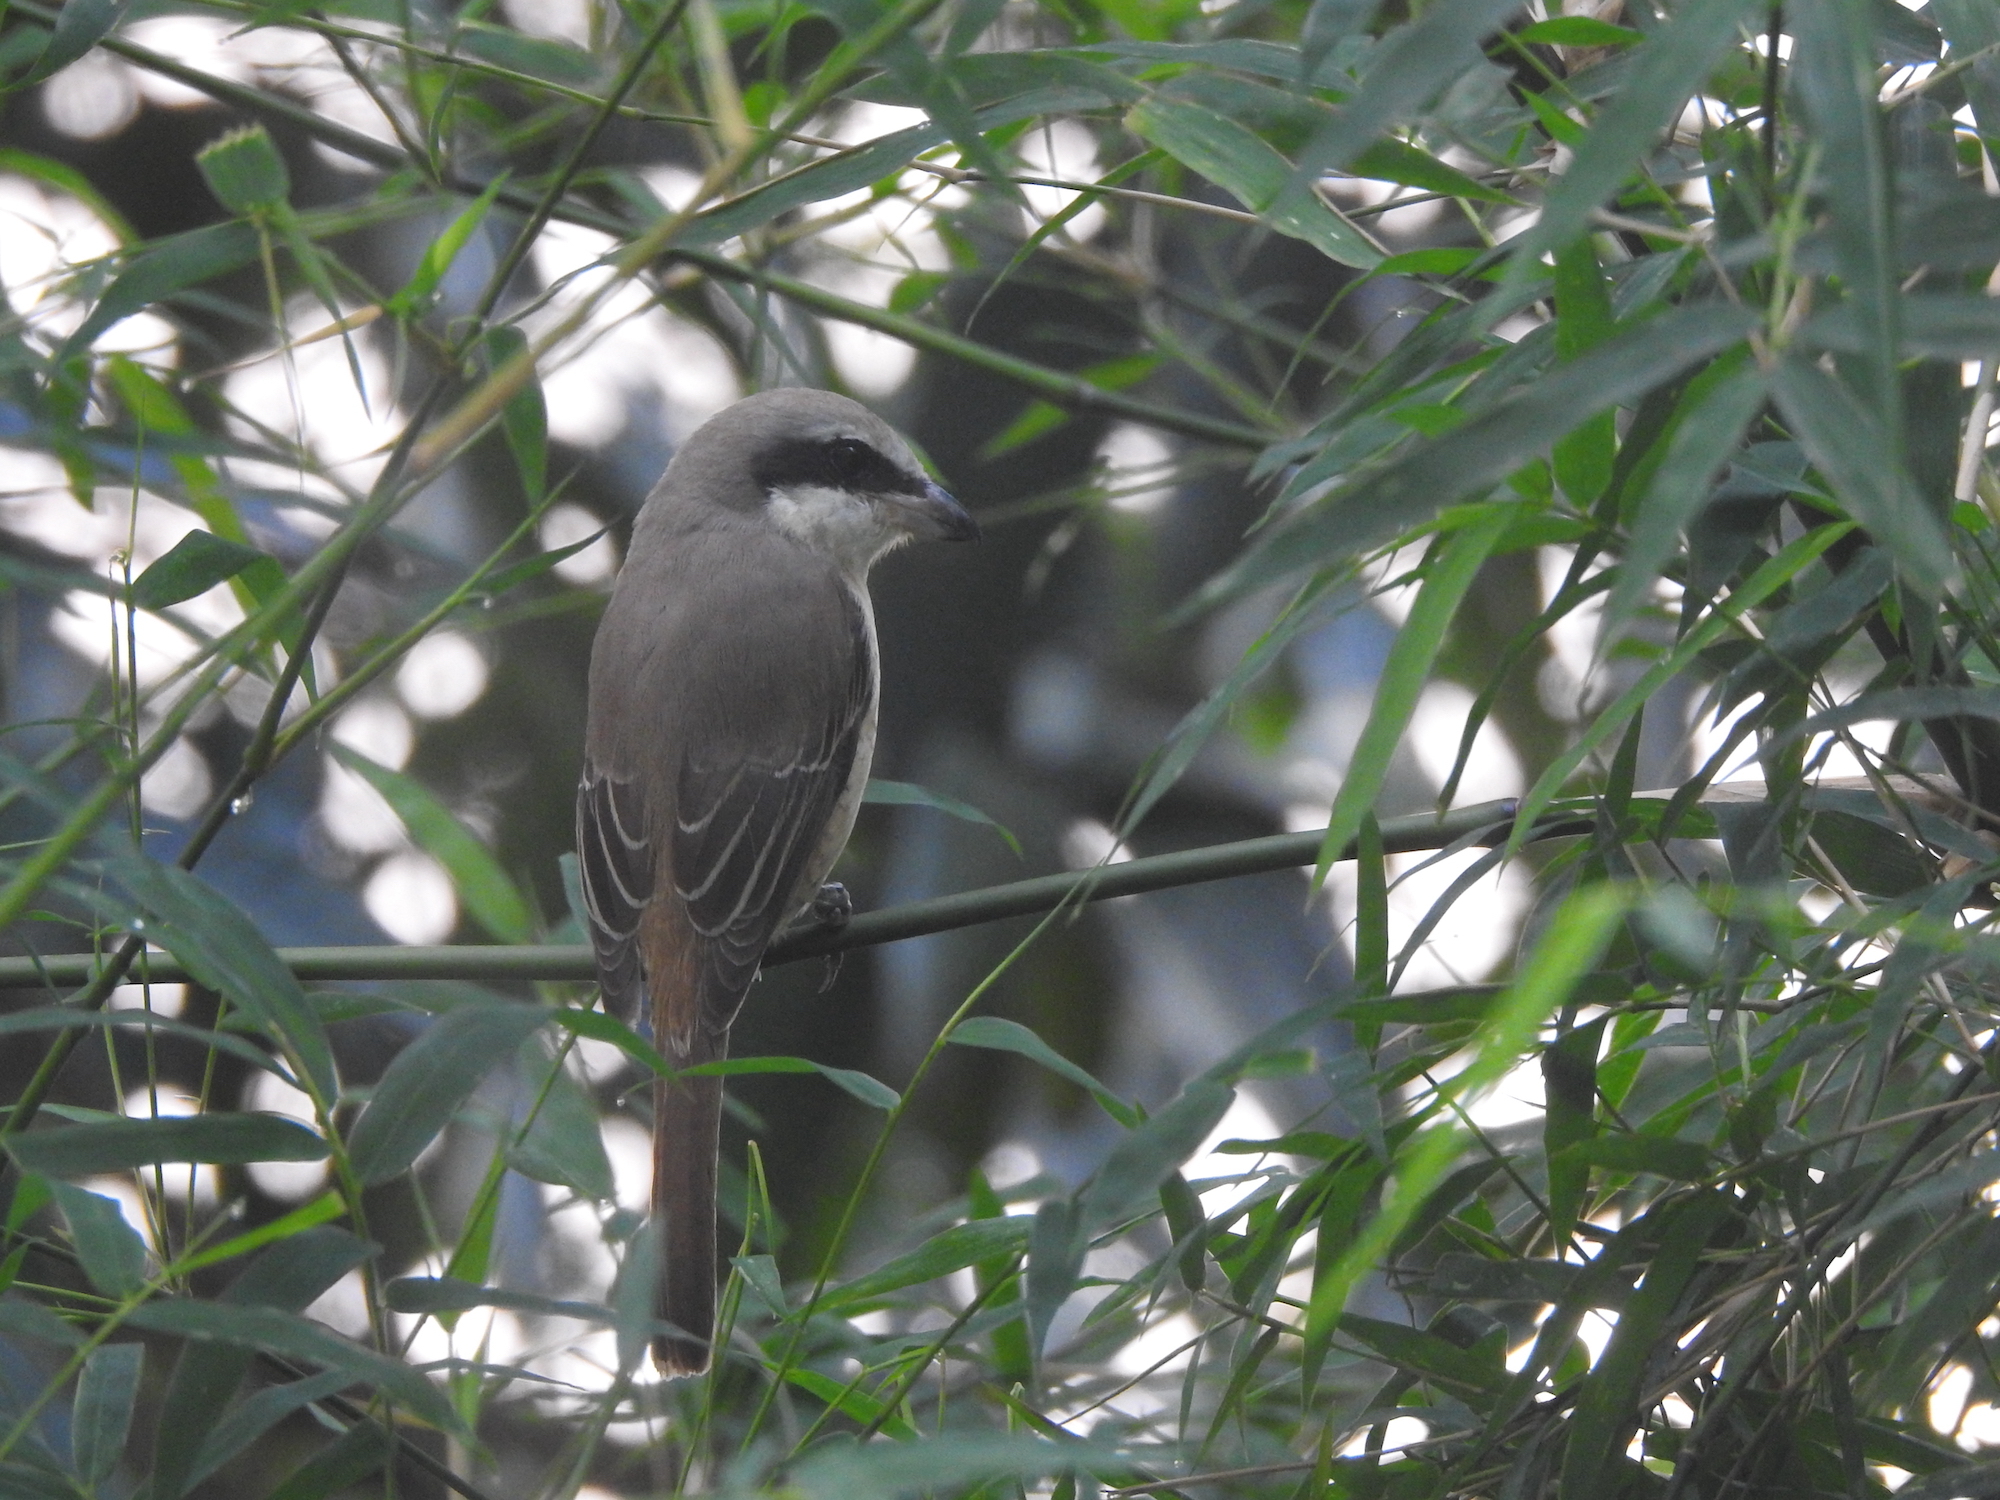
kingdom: Animalia
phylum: Chordata
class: Aves
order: Passeriformes
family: Laniidae
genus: Lanius
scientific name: Lanius cristatus
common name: Brown shrike
